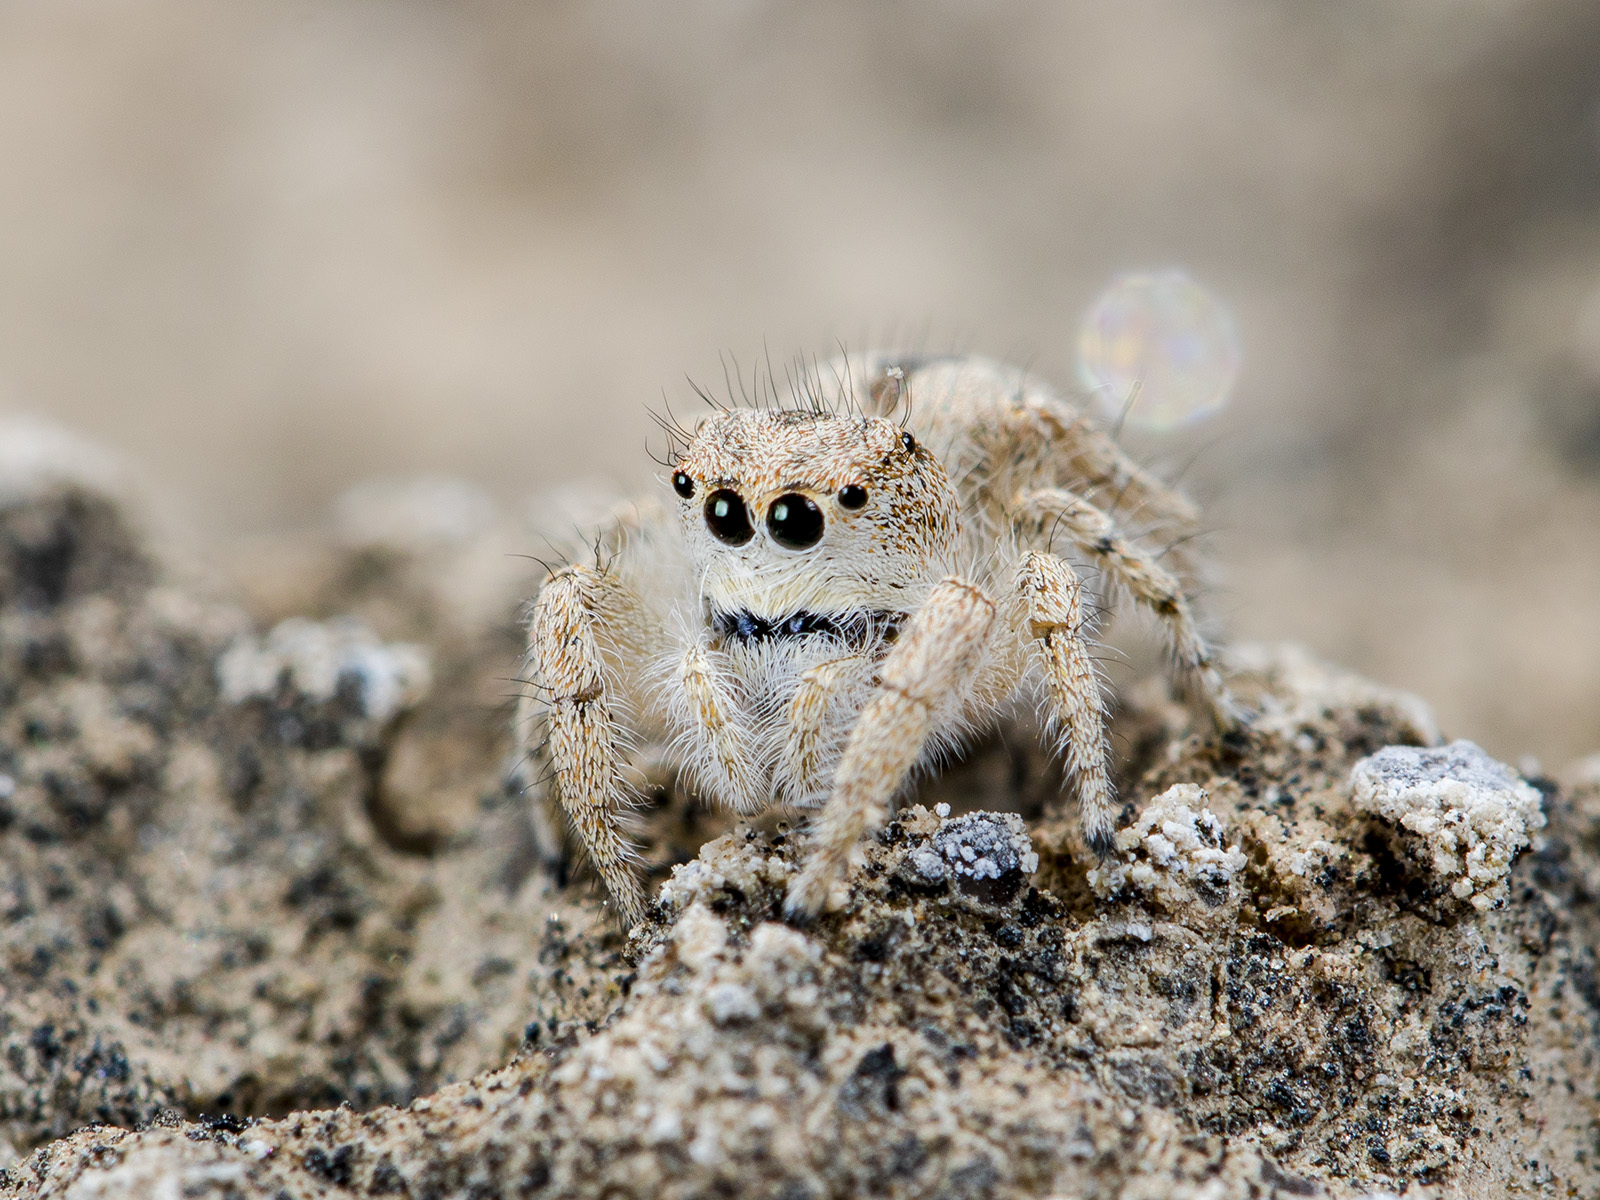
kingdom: Animalia
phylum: Arthropoda
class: Arachnida
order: Araneae
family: Salticidae
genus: Pseudomogrus
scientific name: Pseudomogrus guseinovi
